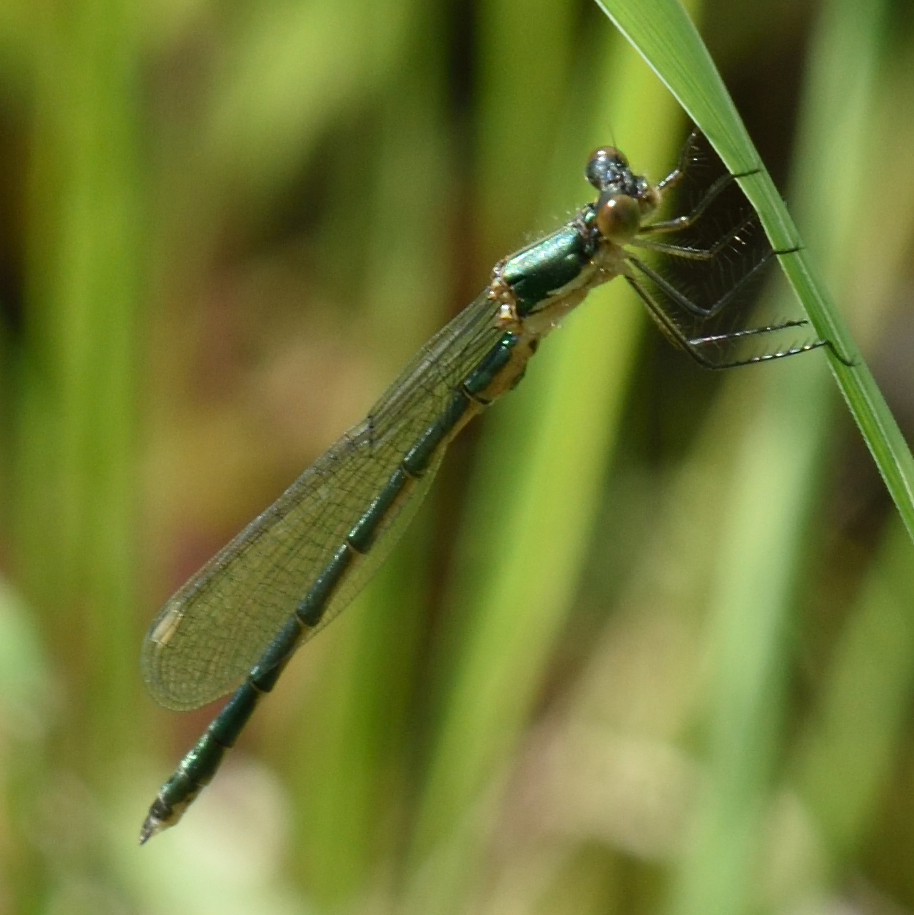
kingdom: Animalia
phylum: Arthropoda
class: Insecta
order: Odonata
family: Lestidae
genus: Lestes
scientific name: Lestes dryas
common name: Scarce emerald damselfly
